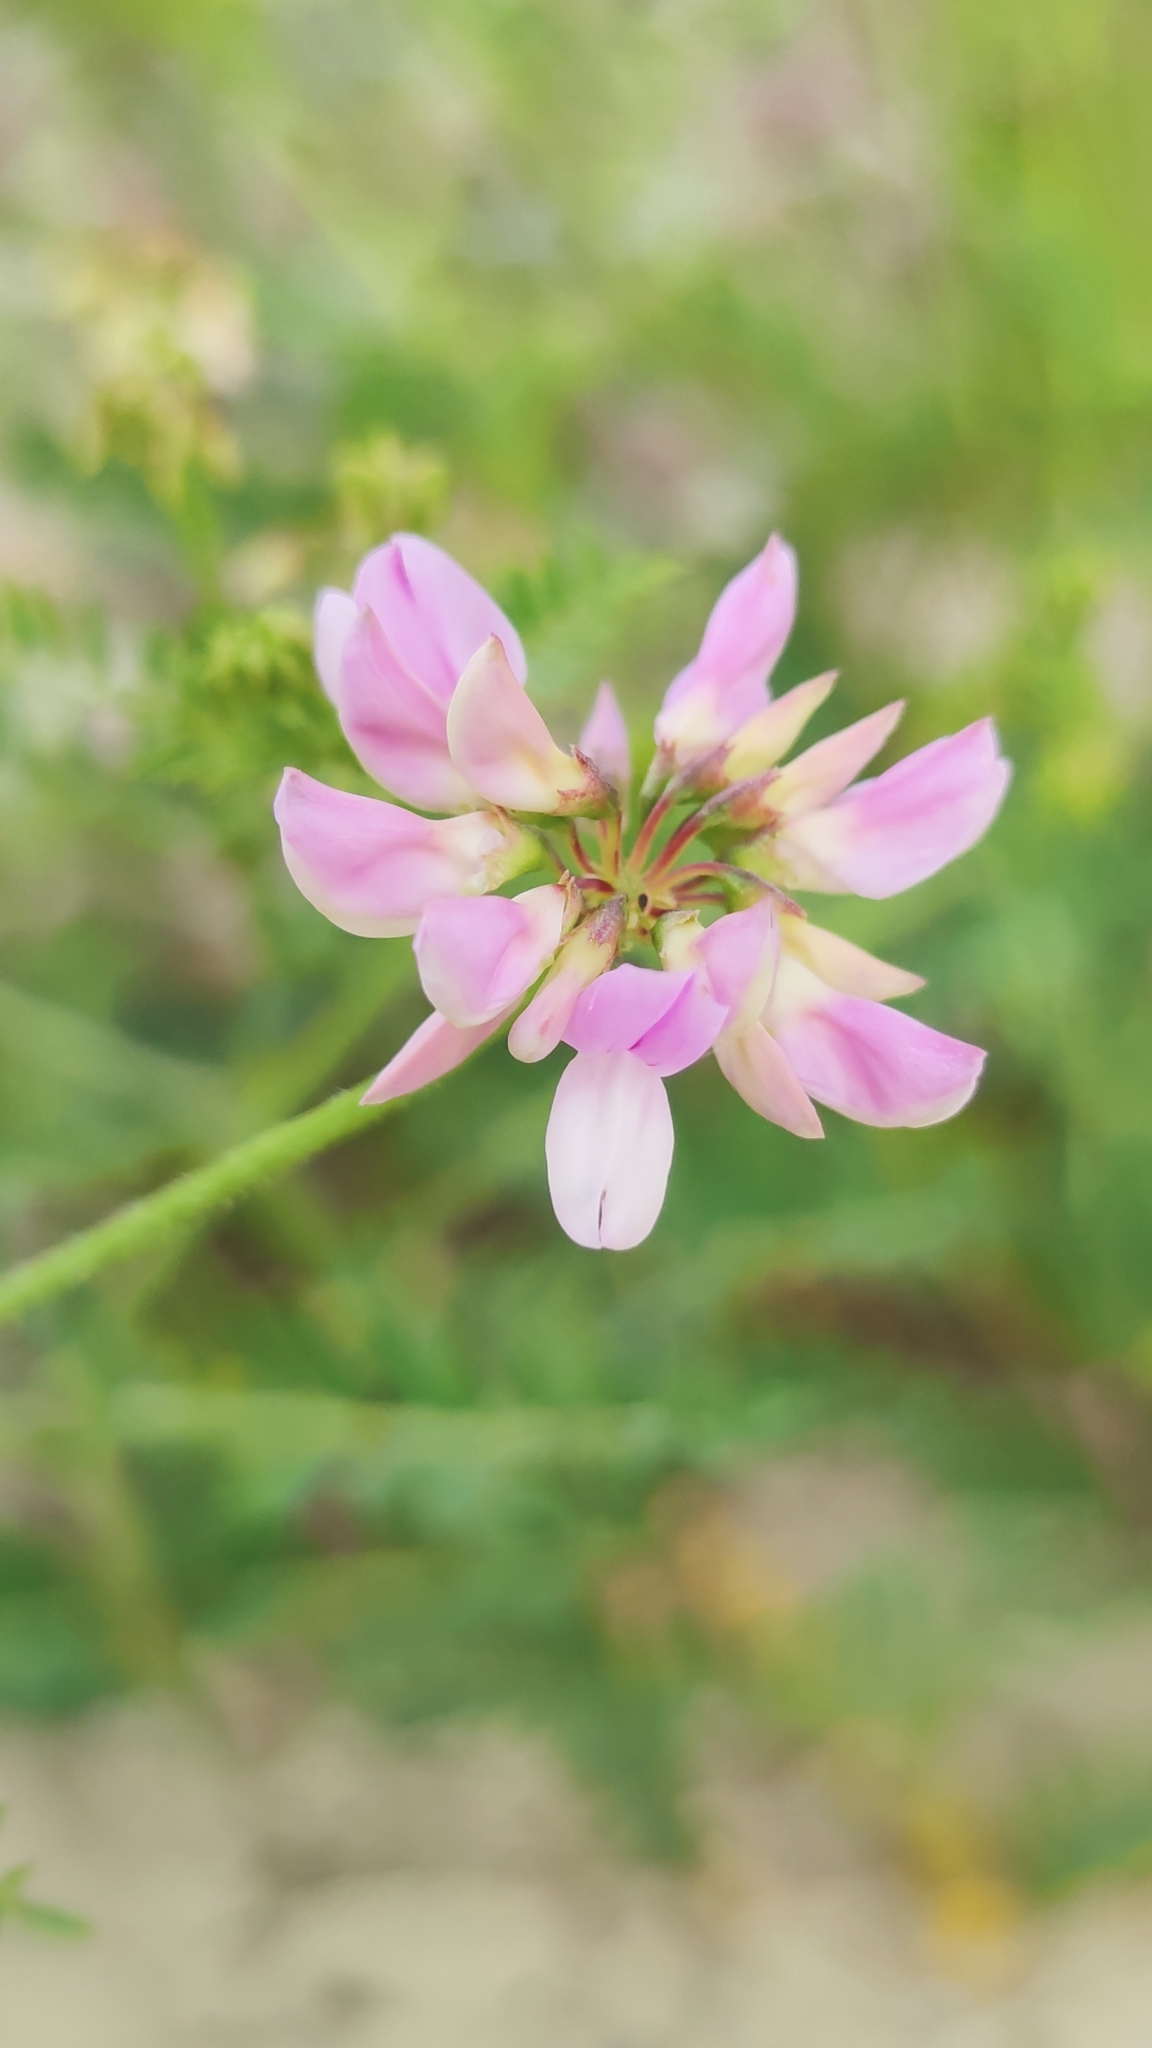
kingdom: Plantae
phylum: Tracheophyta
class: Magnoliopsida
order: Fabales
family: Fabaceae
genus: Coronilla
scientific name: Coronilla varia
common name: Crownvetch
